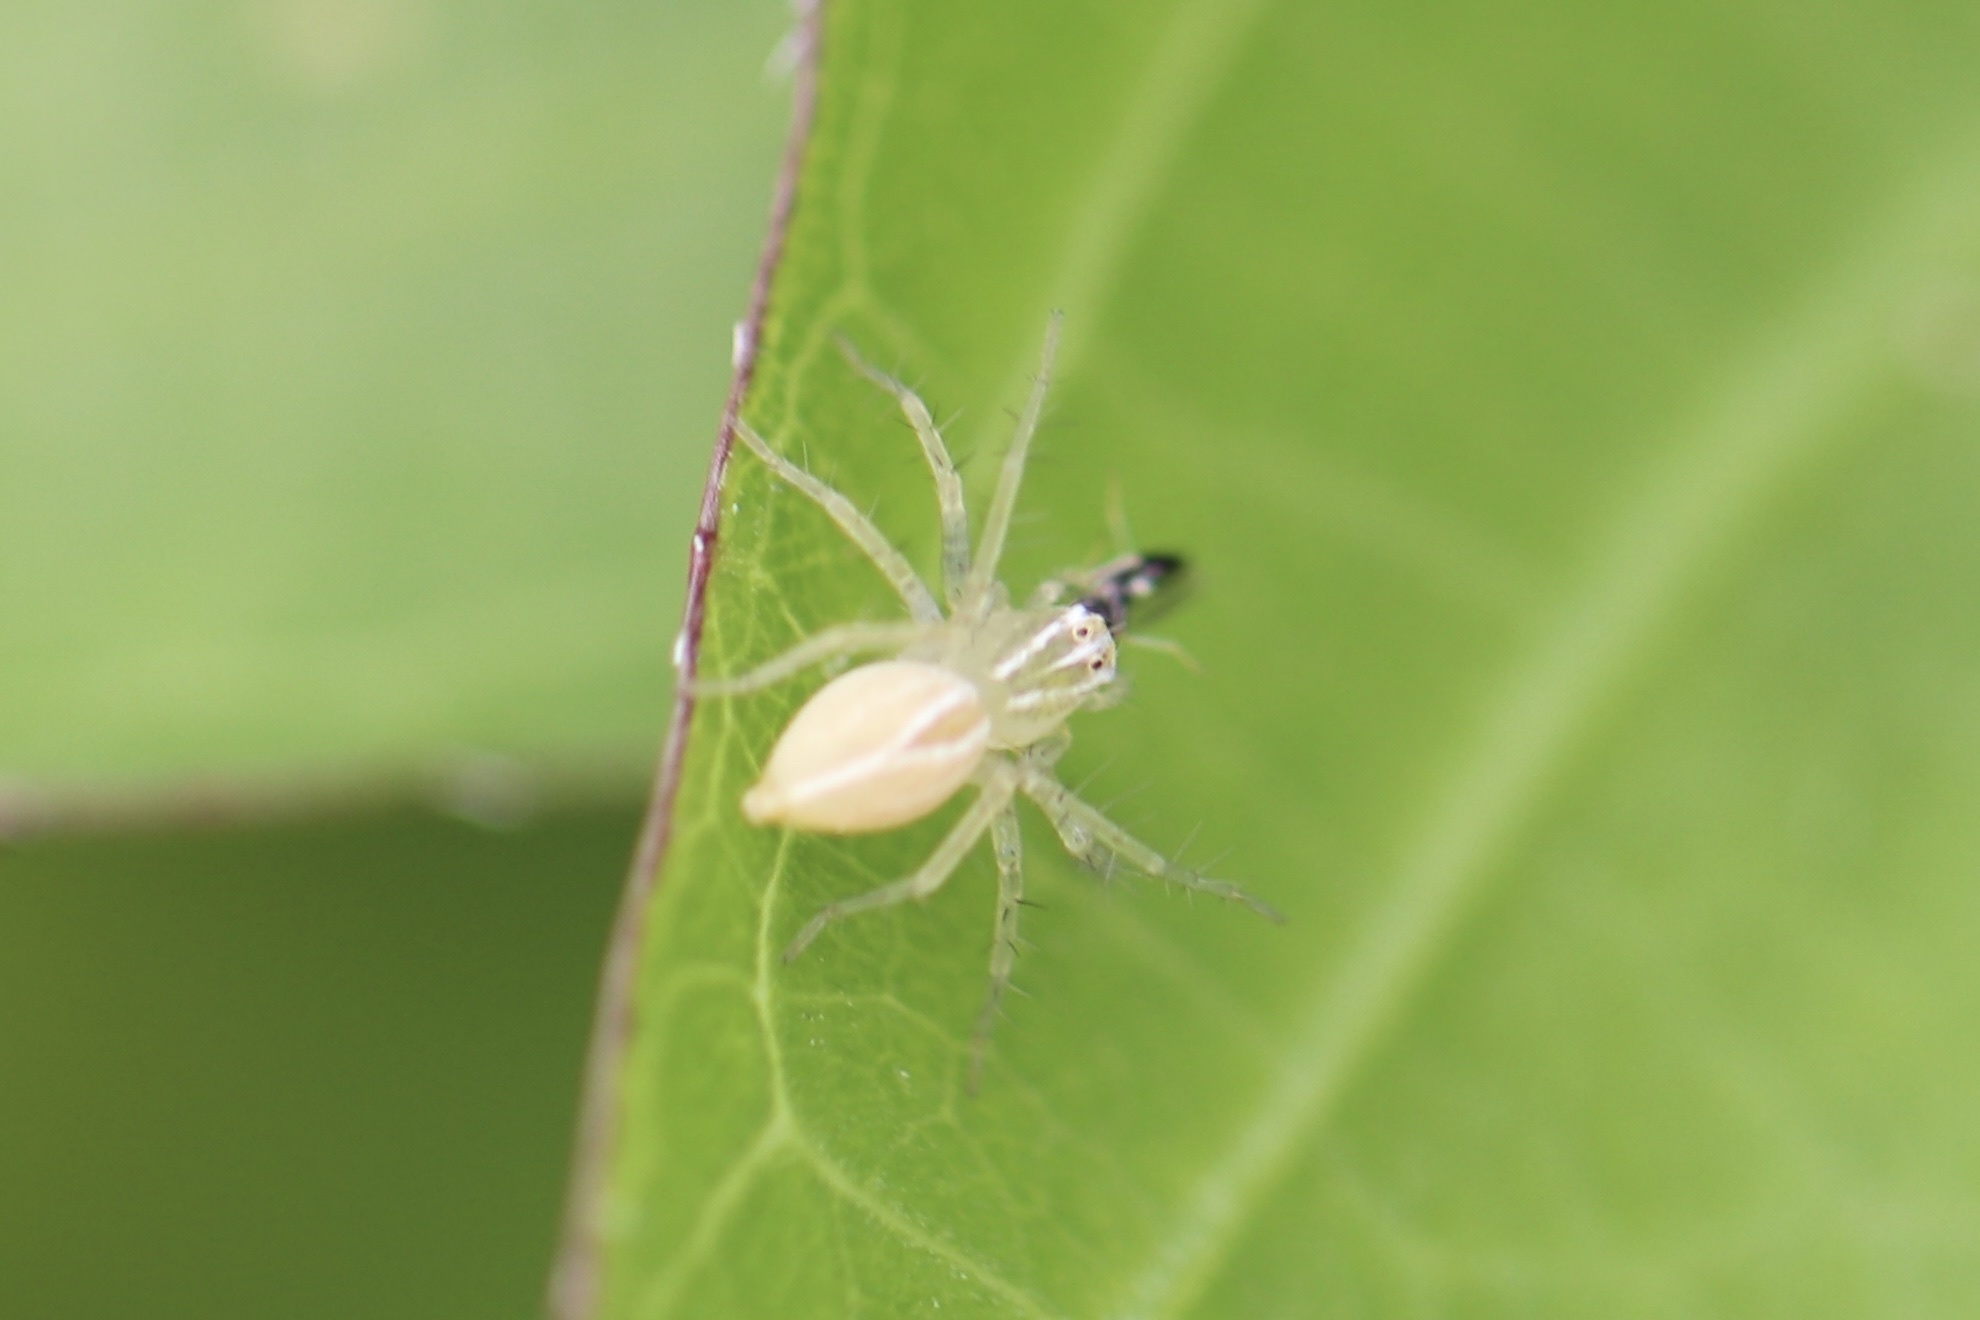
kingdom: Animalia
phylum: Arthropoda
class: Arachnida
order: Araneae
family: Oxyopidae
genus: Oxyopes
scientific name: Oxyopes salticus
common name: Lynx spiders
